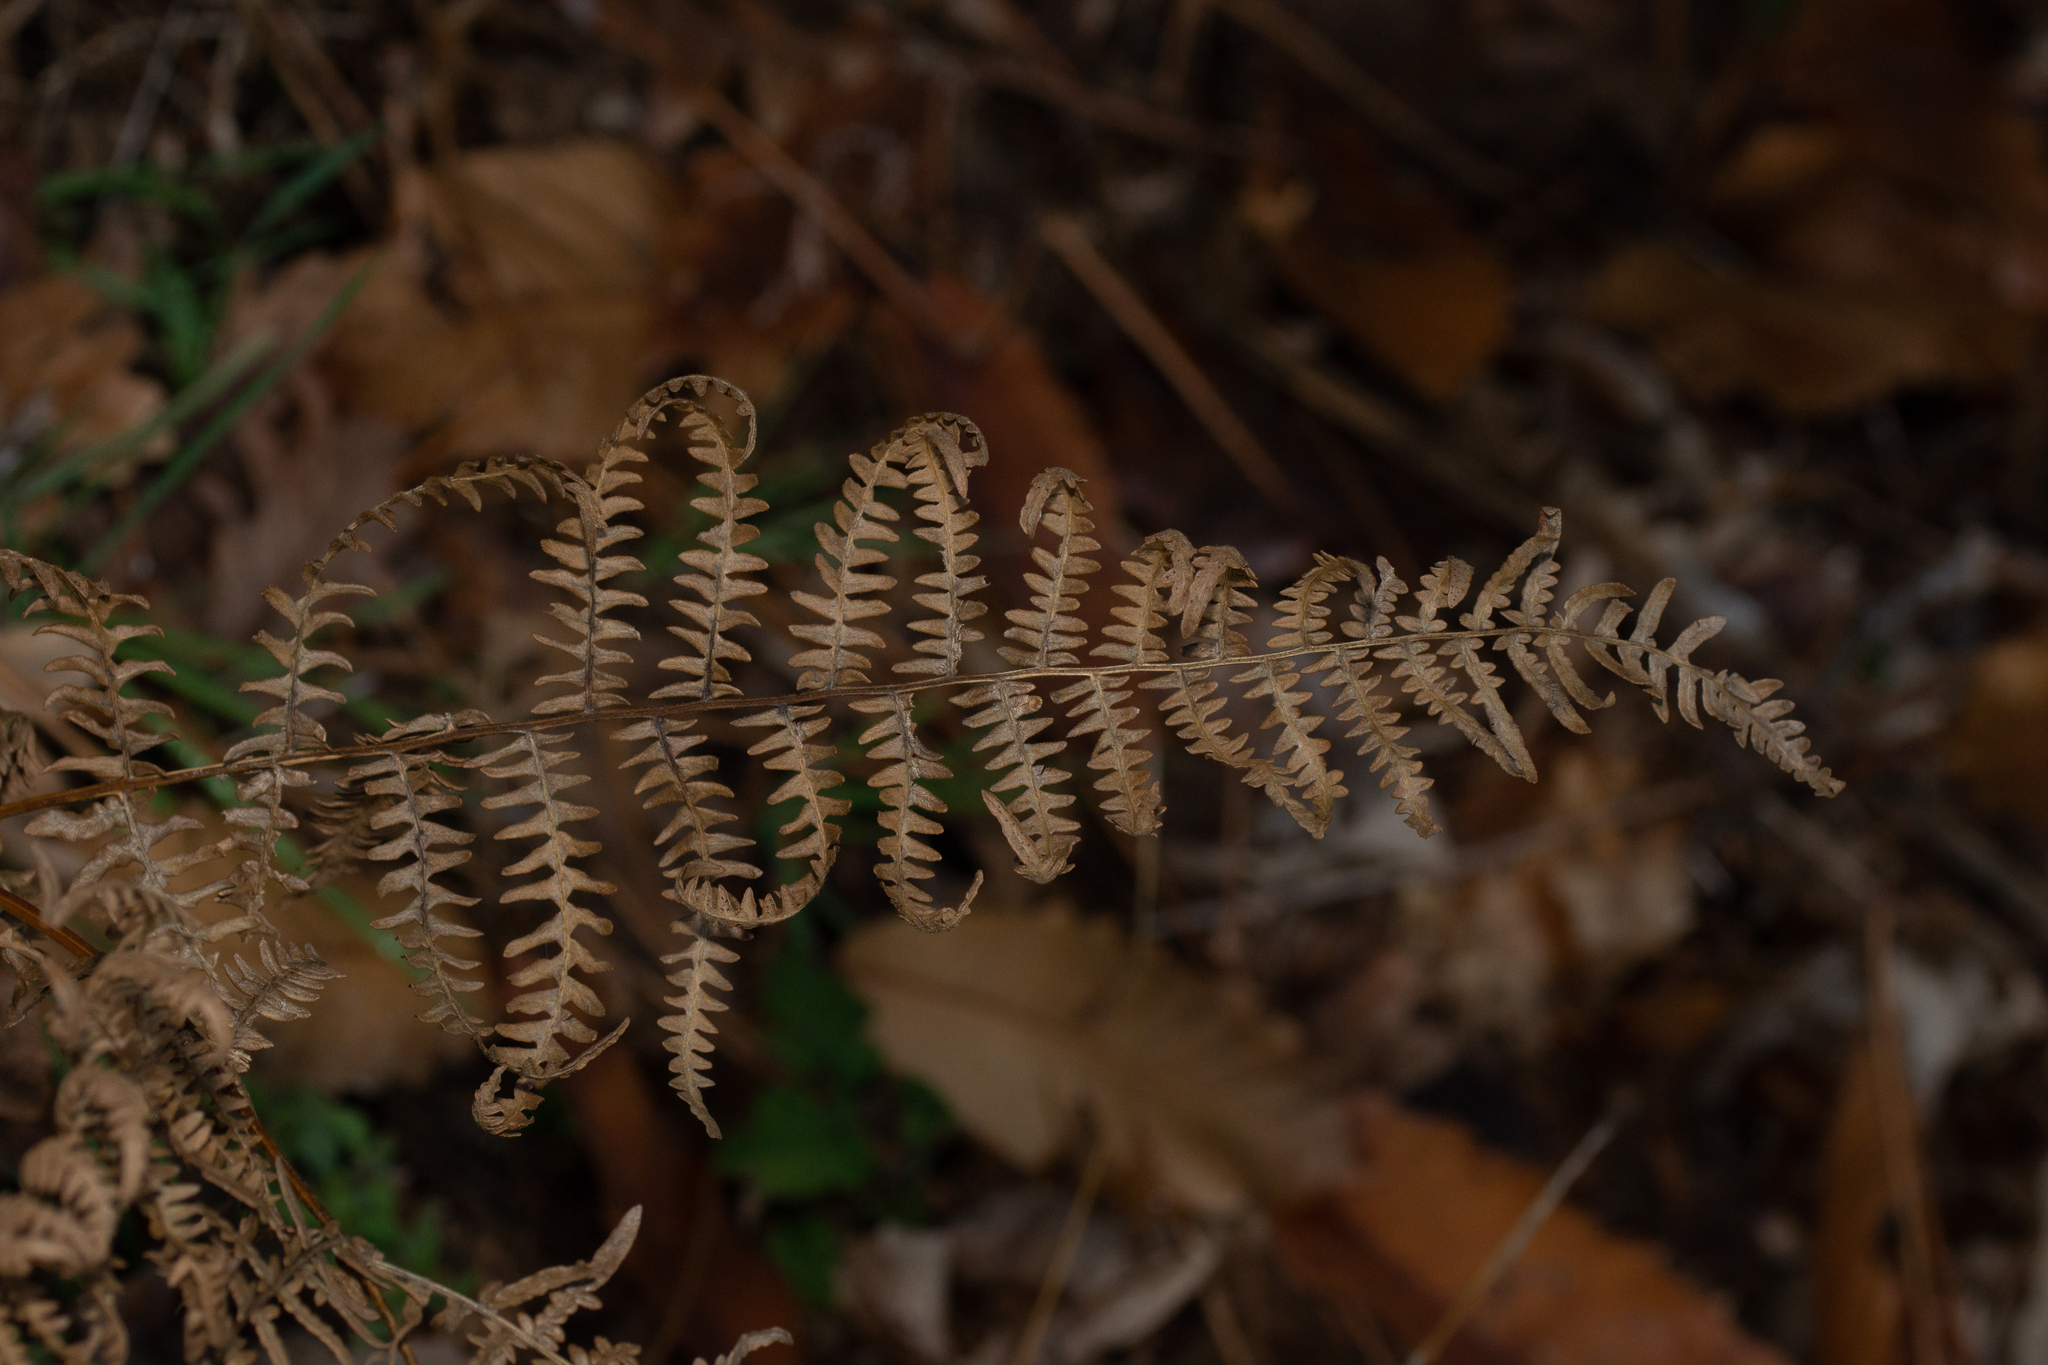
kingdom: Plantae
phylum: Tracheophyta
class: Polypodiopsida
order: Polypodiales
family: Dennstaedtiaceae
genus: Pteridium
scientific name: Pteridium aquilinum
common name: Bracken
